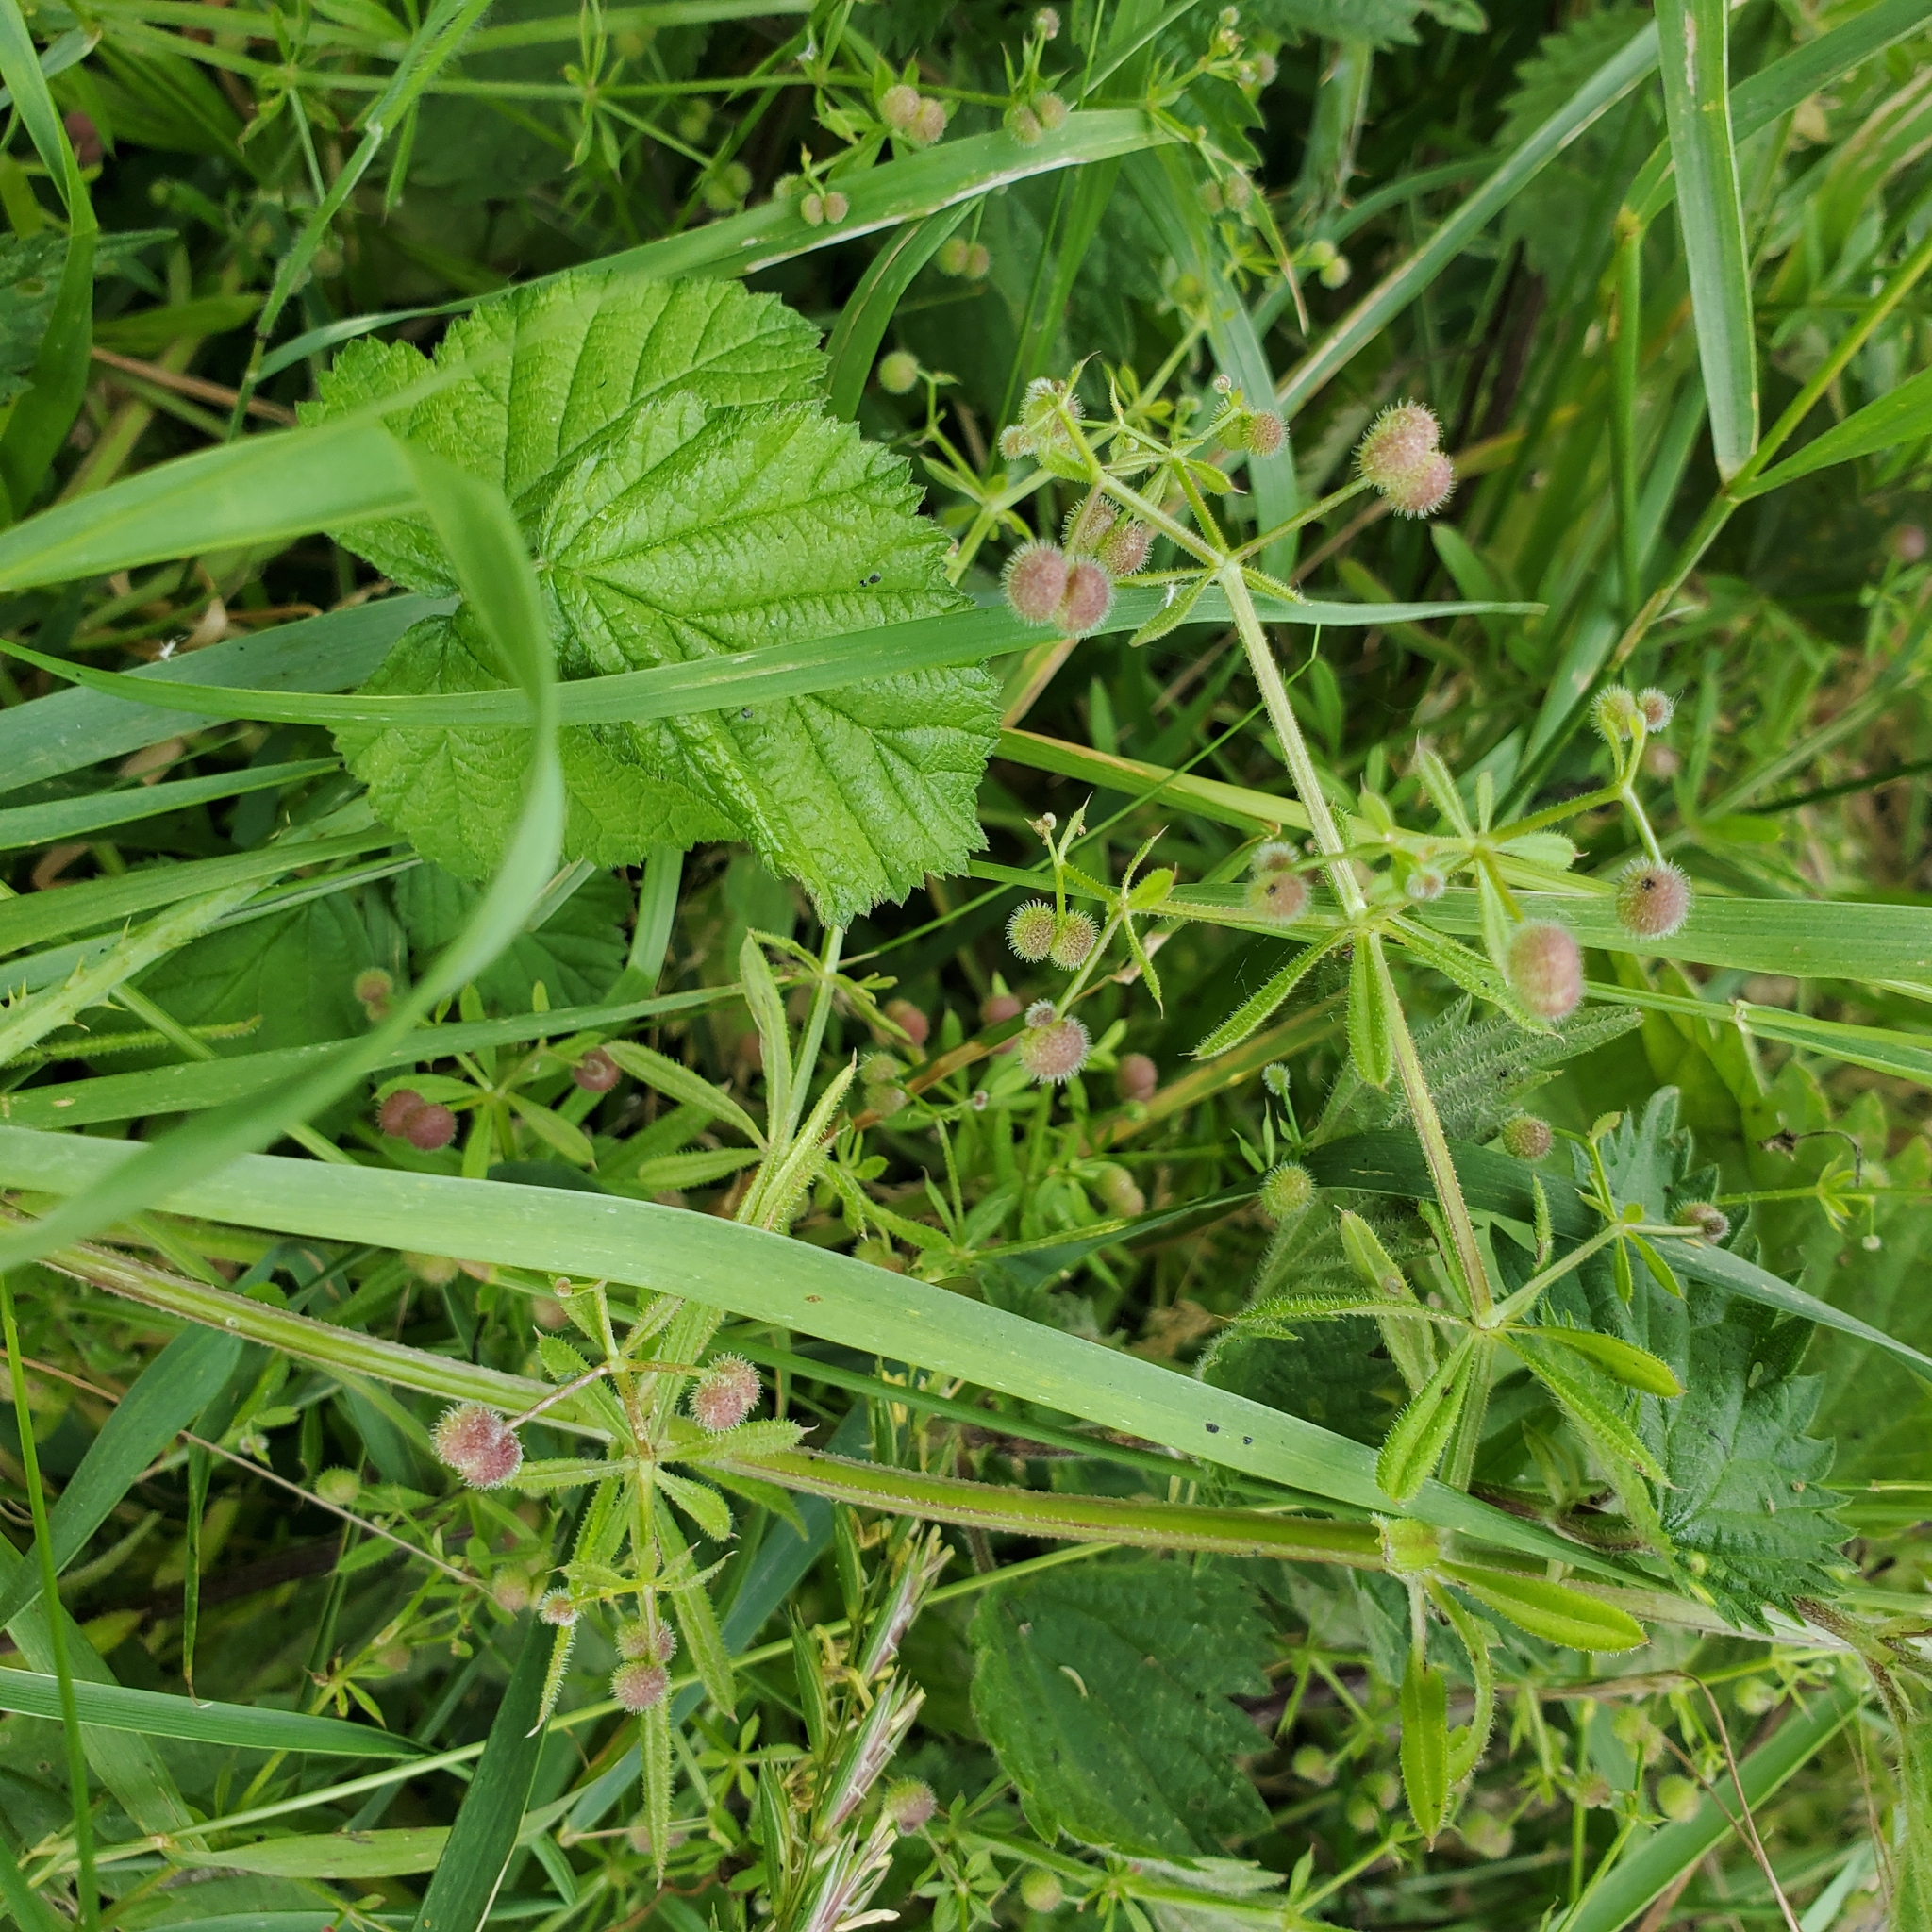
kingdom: Plantae
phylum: Tracheophyta
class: Magnoliopsida
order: Gentianales
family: Rubiaceae
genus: Galium
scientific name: Galium aparine
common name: Cleavers
